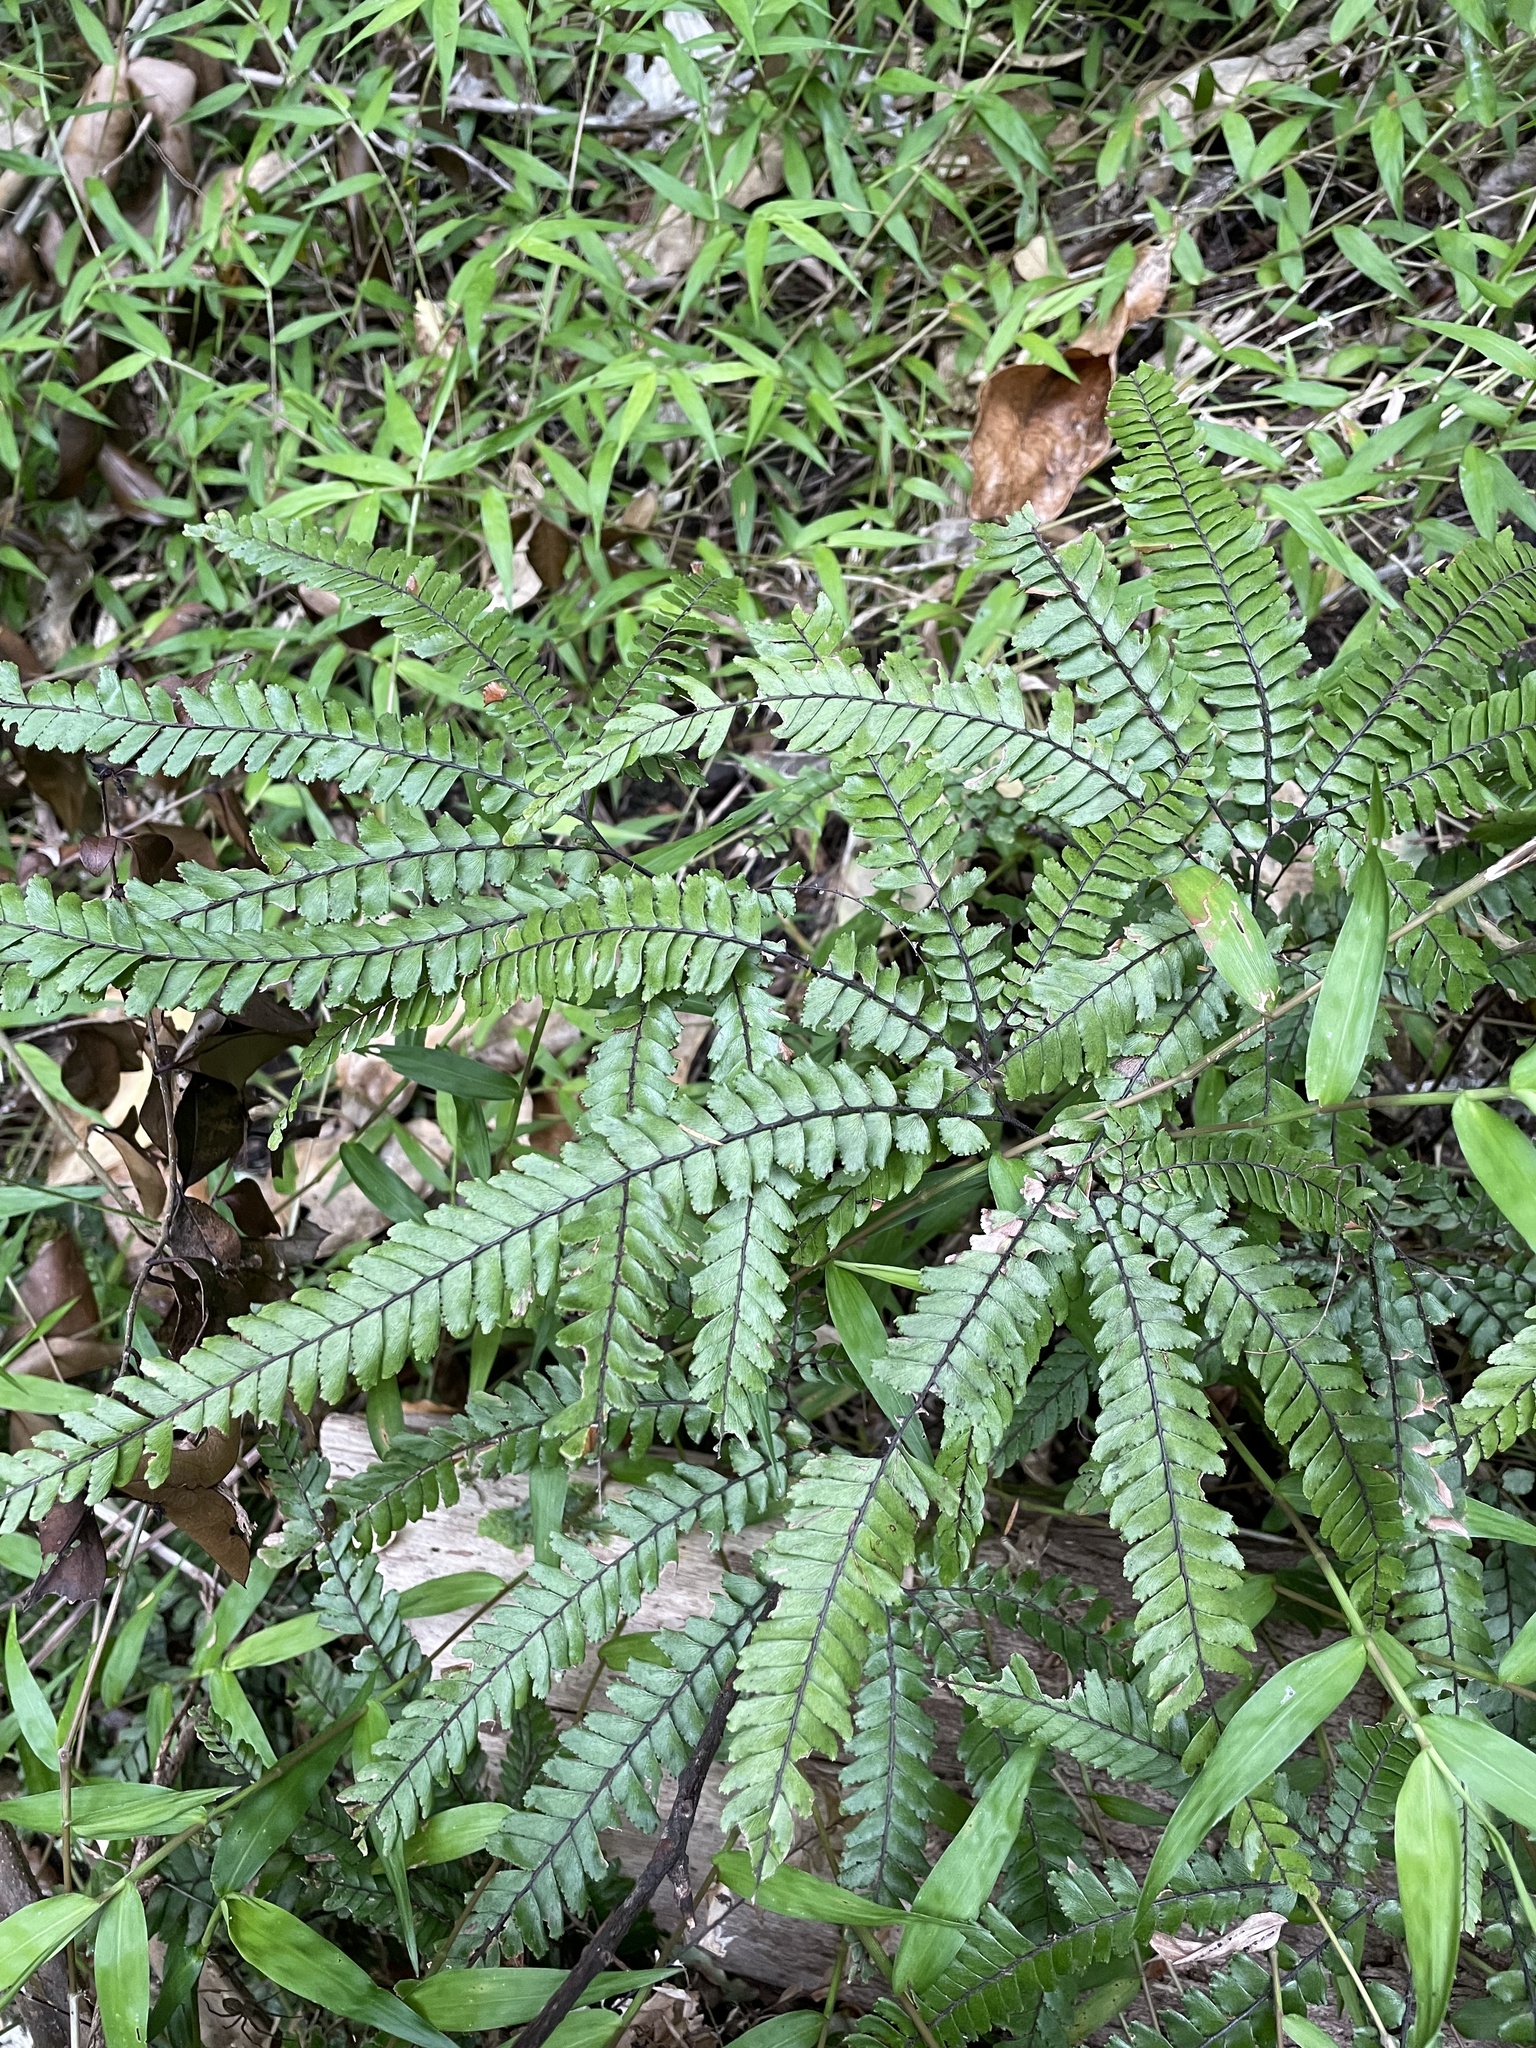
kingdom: Plantae
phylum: Tracheophyta
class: Polypodiopsida
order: Polypodiales
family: Pteridaceae
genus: Adiantum
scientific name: Adiantum hispidulum
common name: Rough maidenhair
